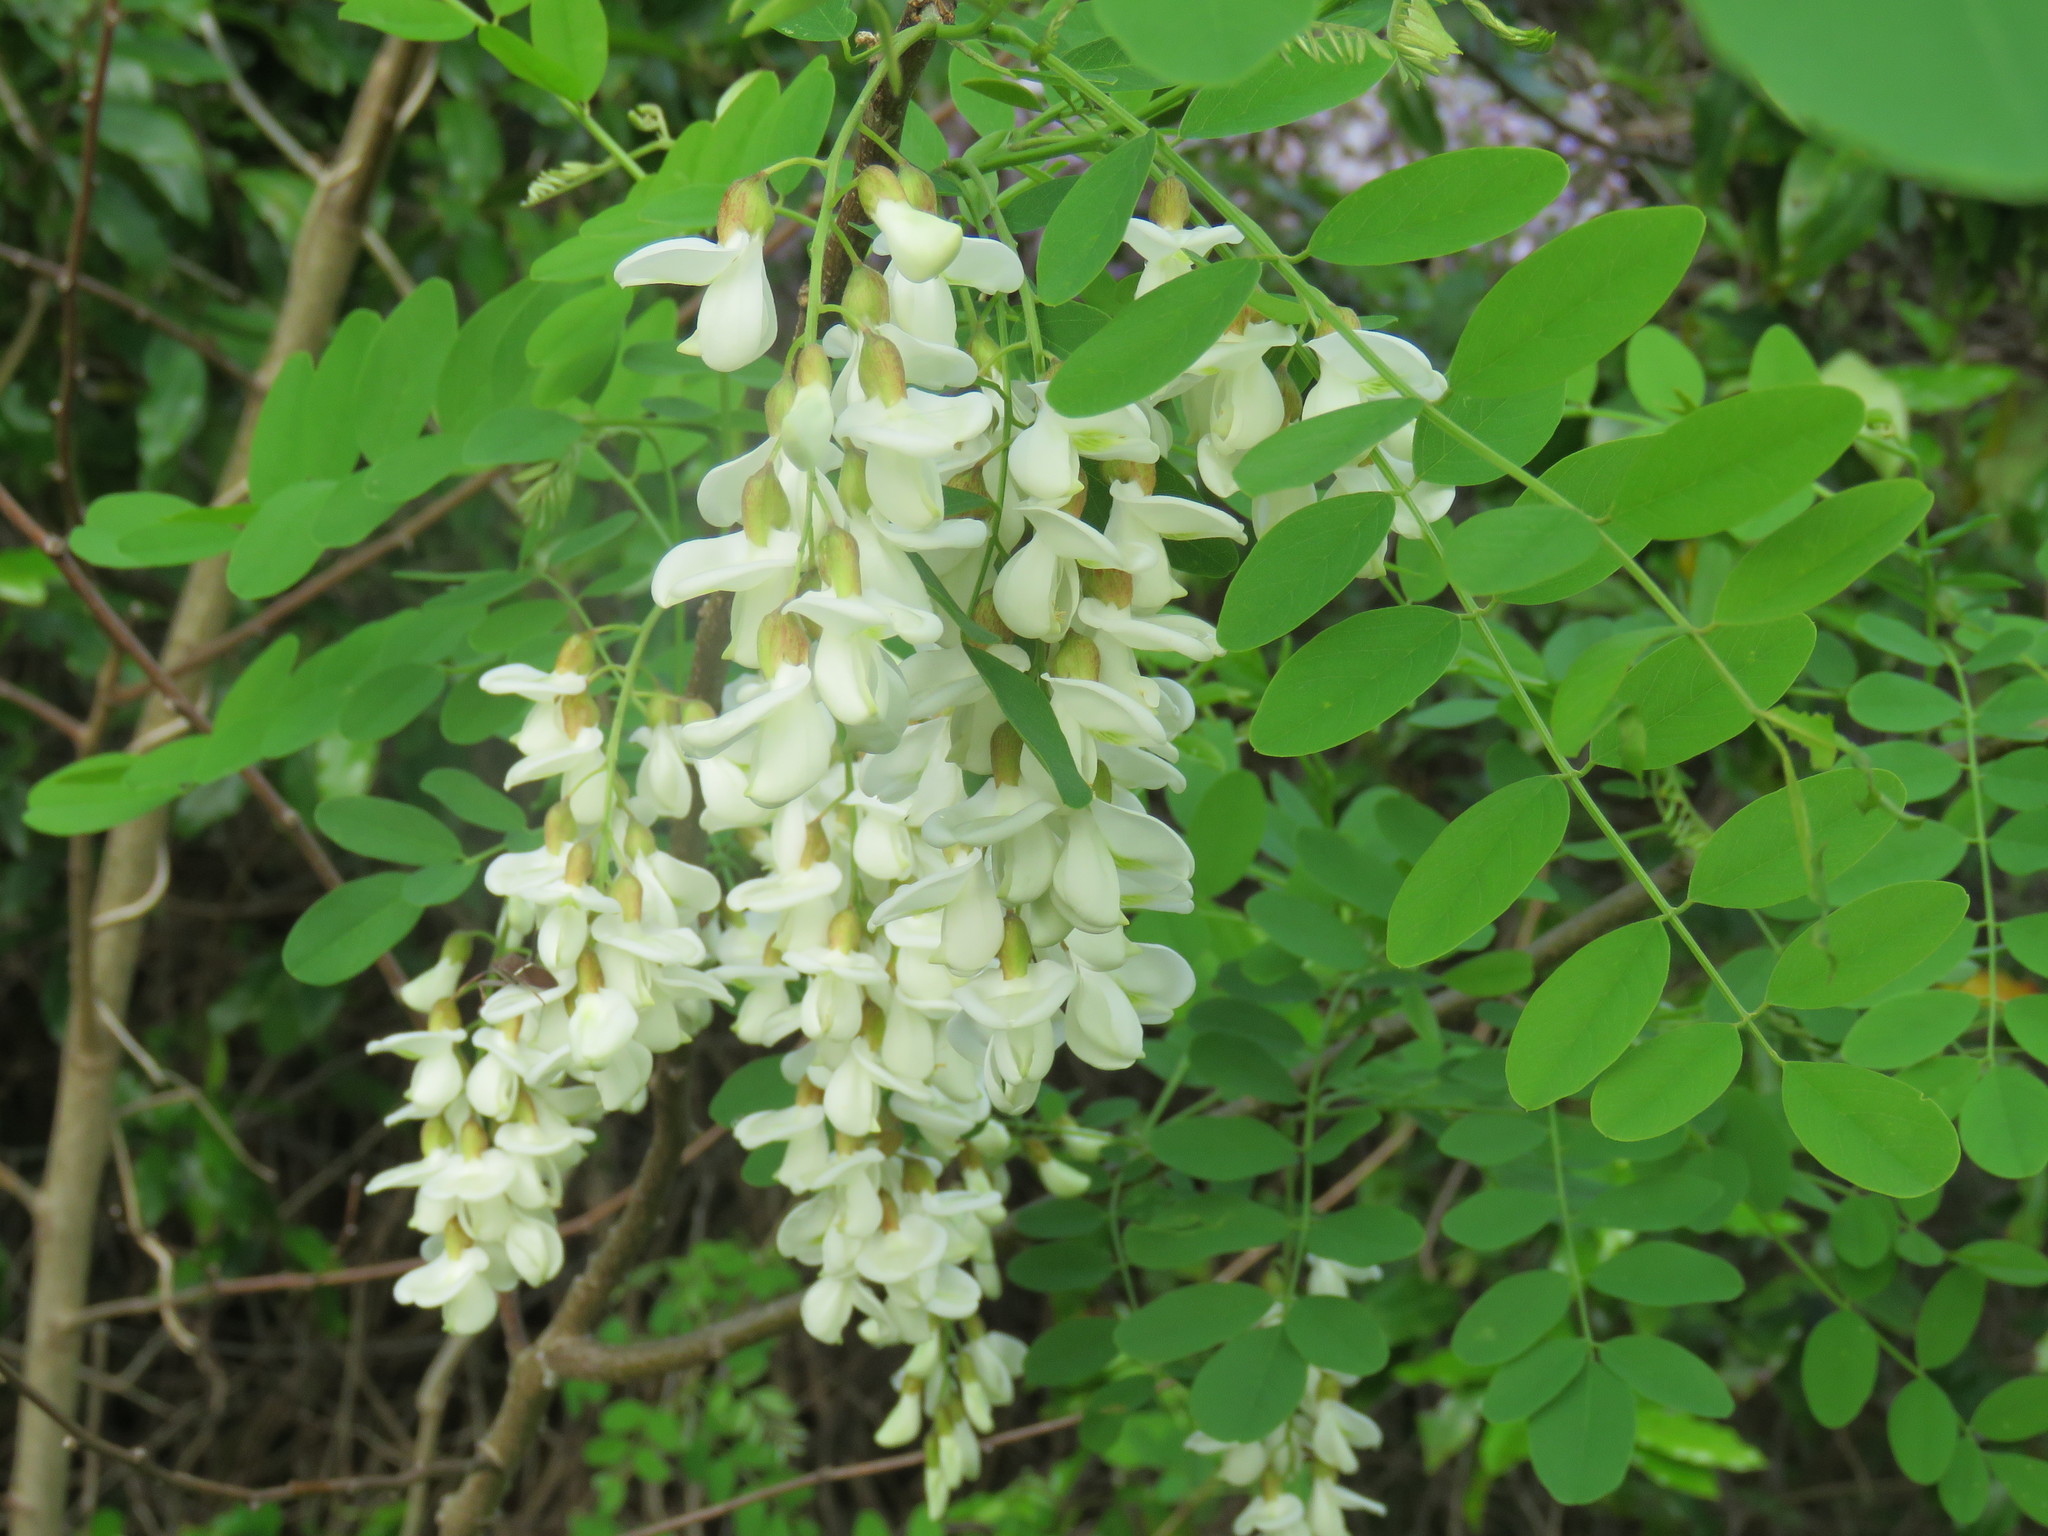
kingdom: Plantae
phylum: Tracheophyta
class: Magnoliopsida
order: Fabales
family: Fabaceae
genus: Robinia
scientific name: Robinia pseudoacacia
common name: Black locust
